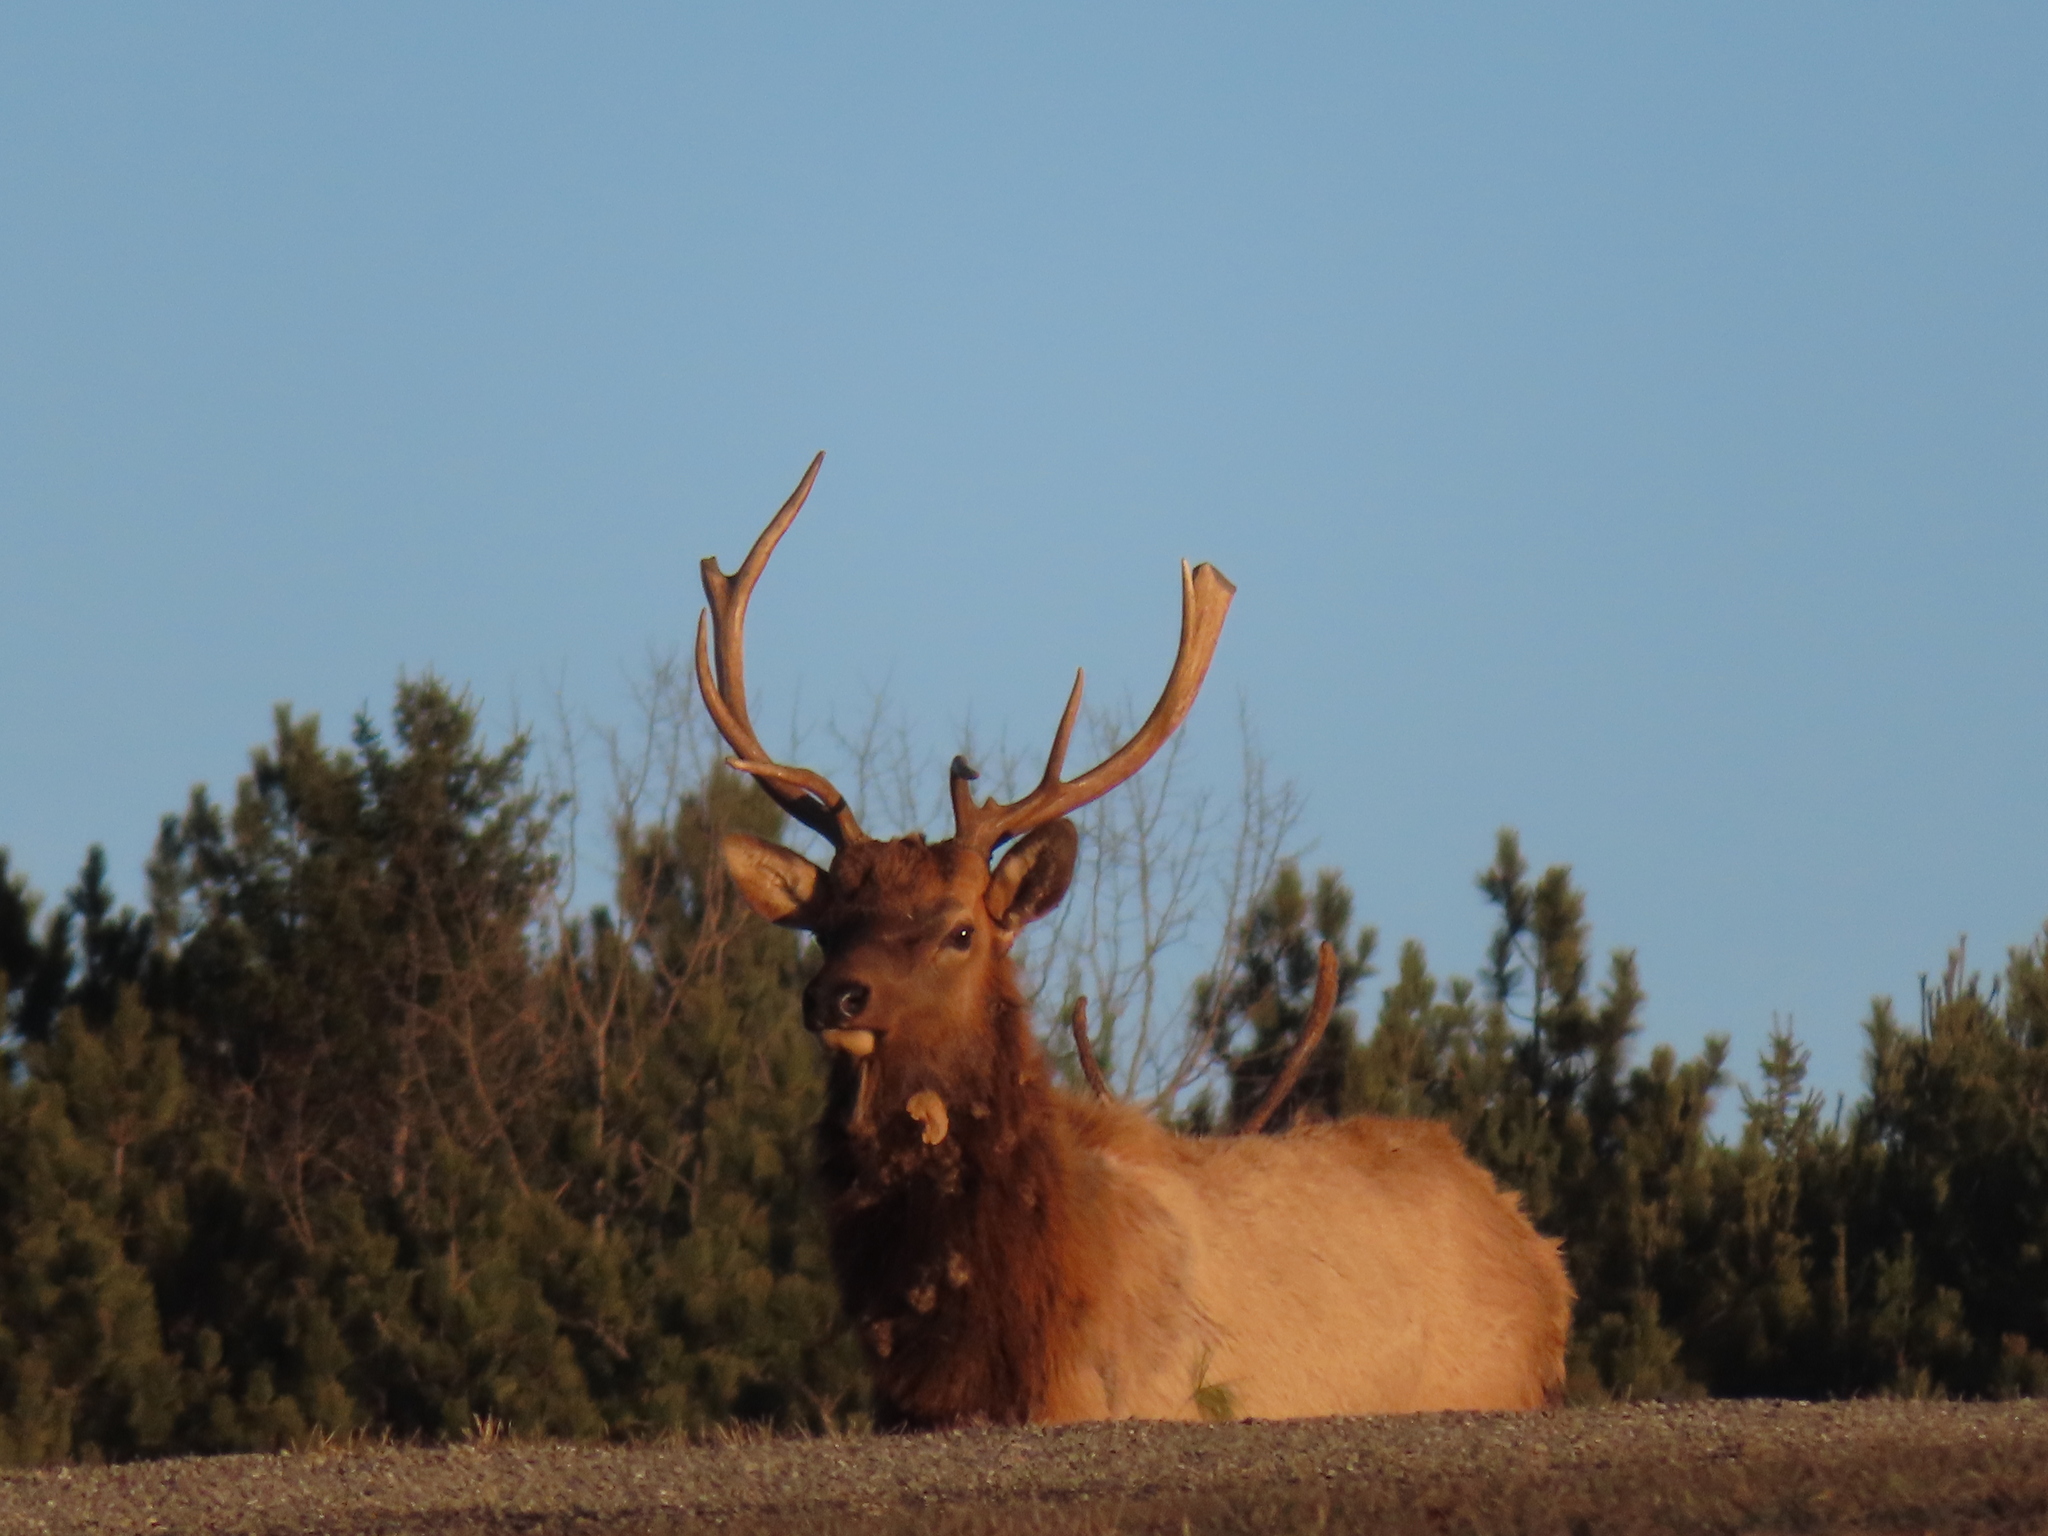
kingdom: Animalia
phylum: Chordata
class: Mammalia
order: Artiodactyla
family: Cervidae
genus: Cervus
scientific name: Cervus elaphus
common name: Red deer
